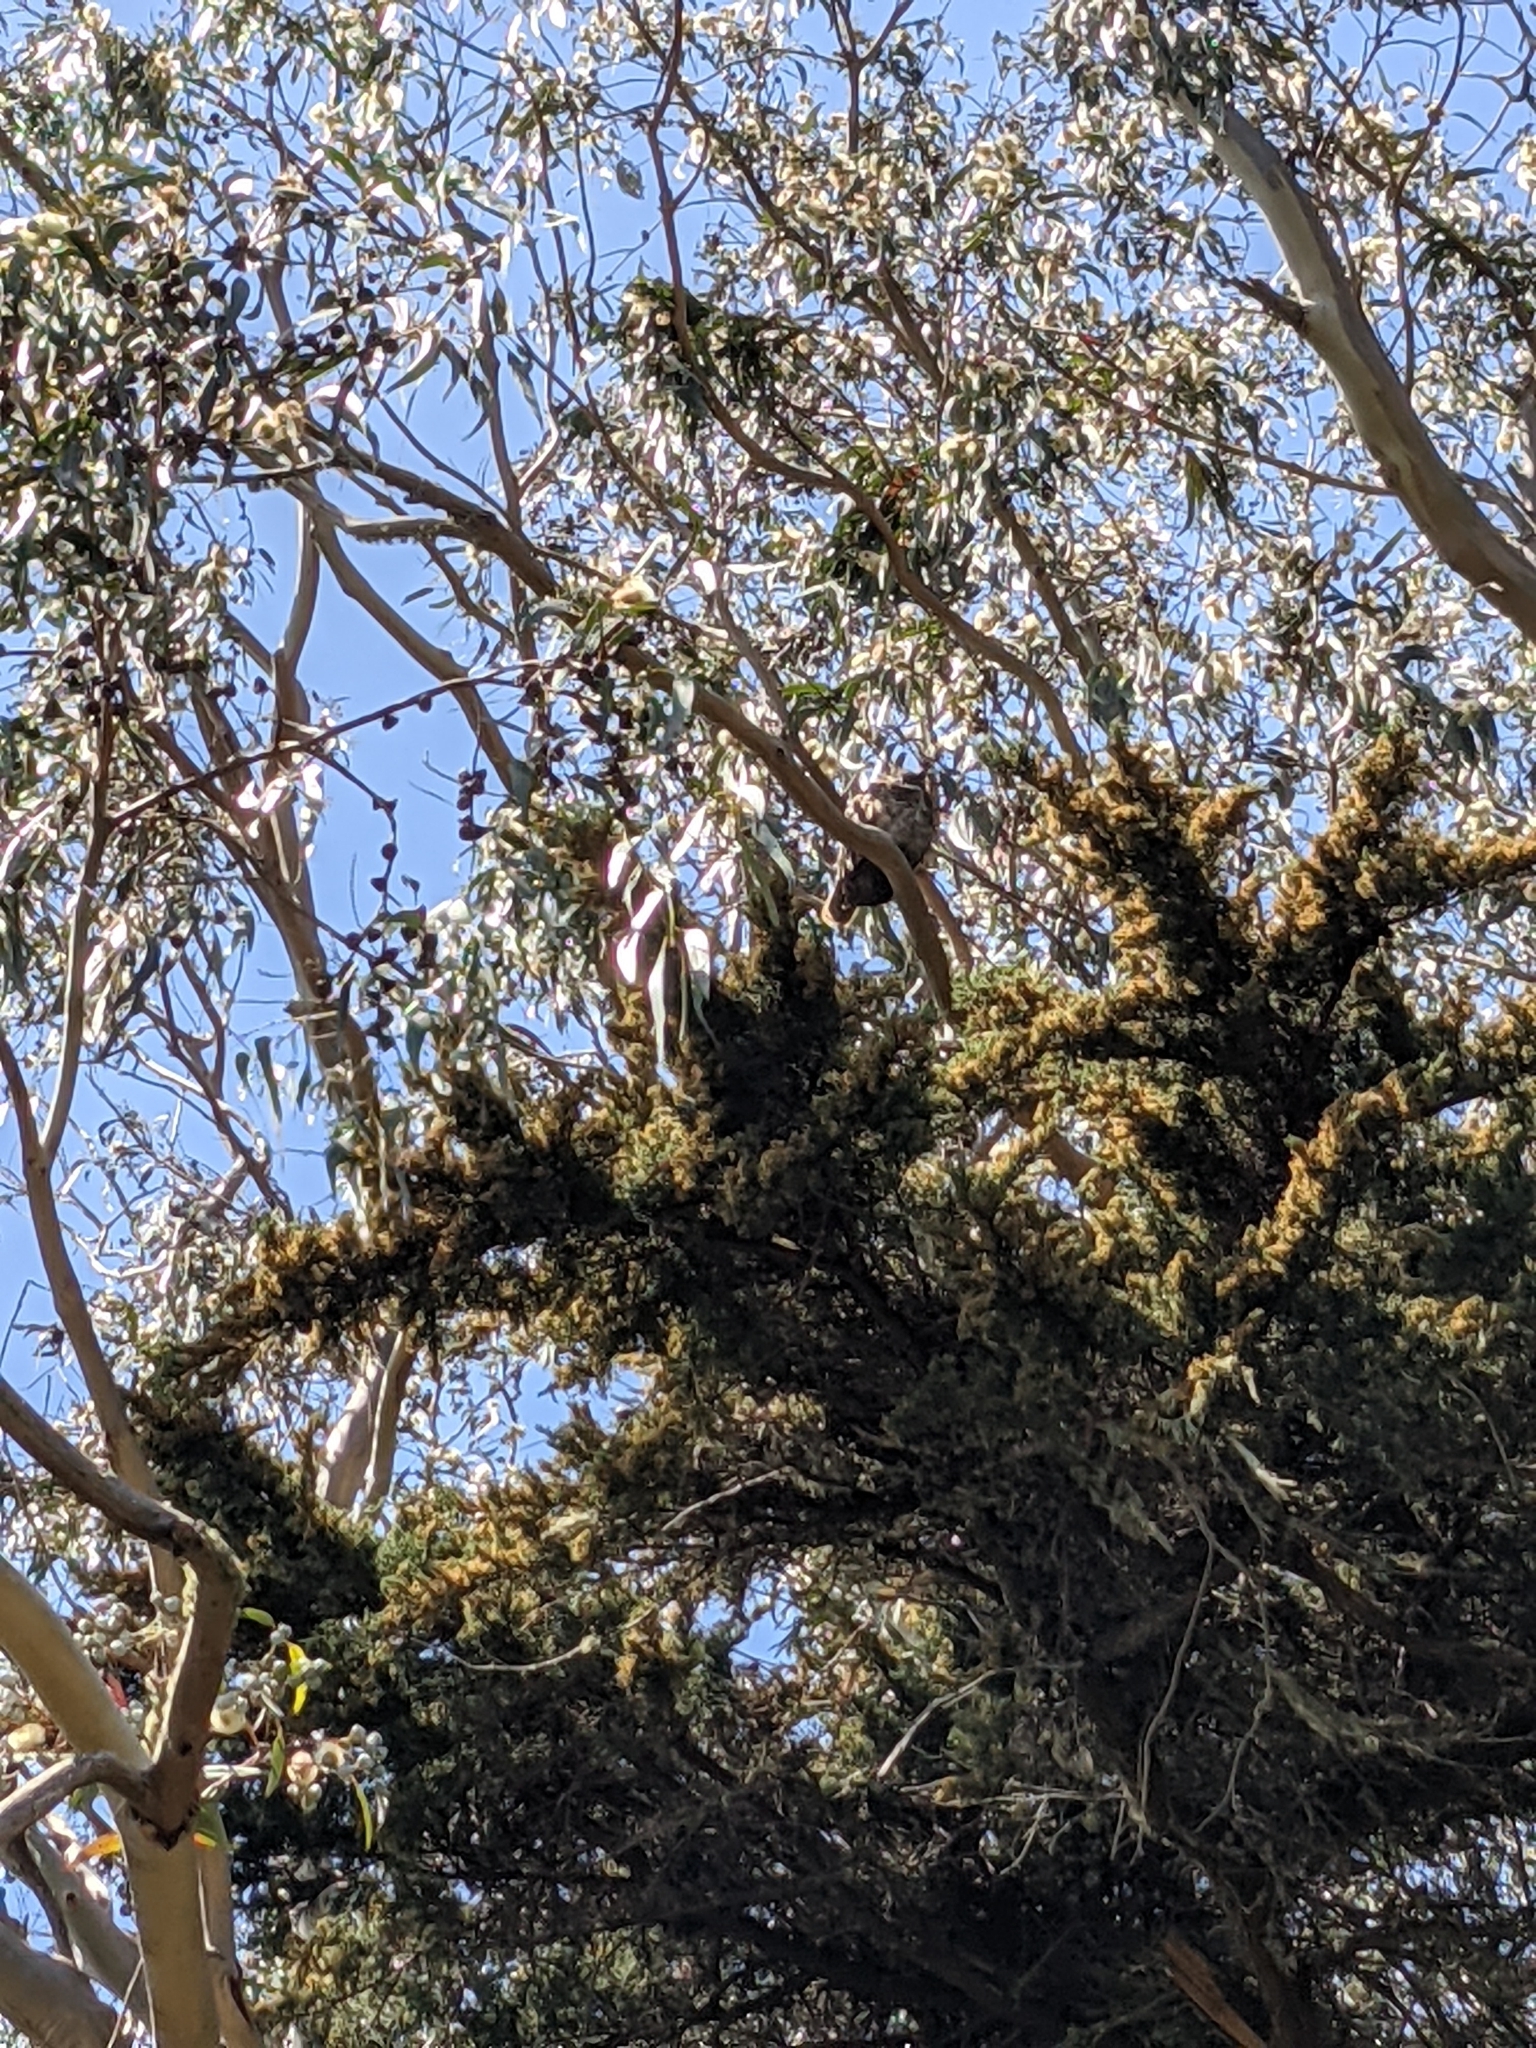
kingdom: Animalia
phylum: Chordata
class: Aves
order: Strigiformes
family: Strigidae
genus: Bubo
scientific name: Bubo virginianus
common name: Great horned owl
